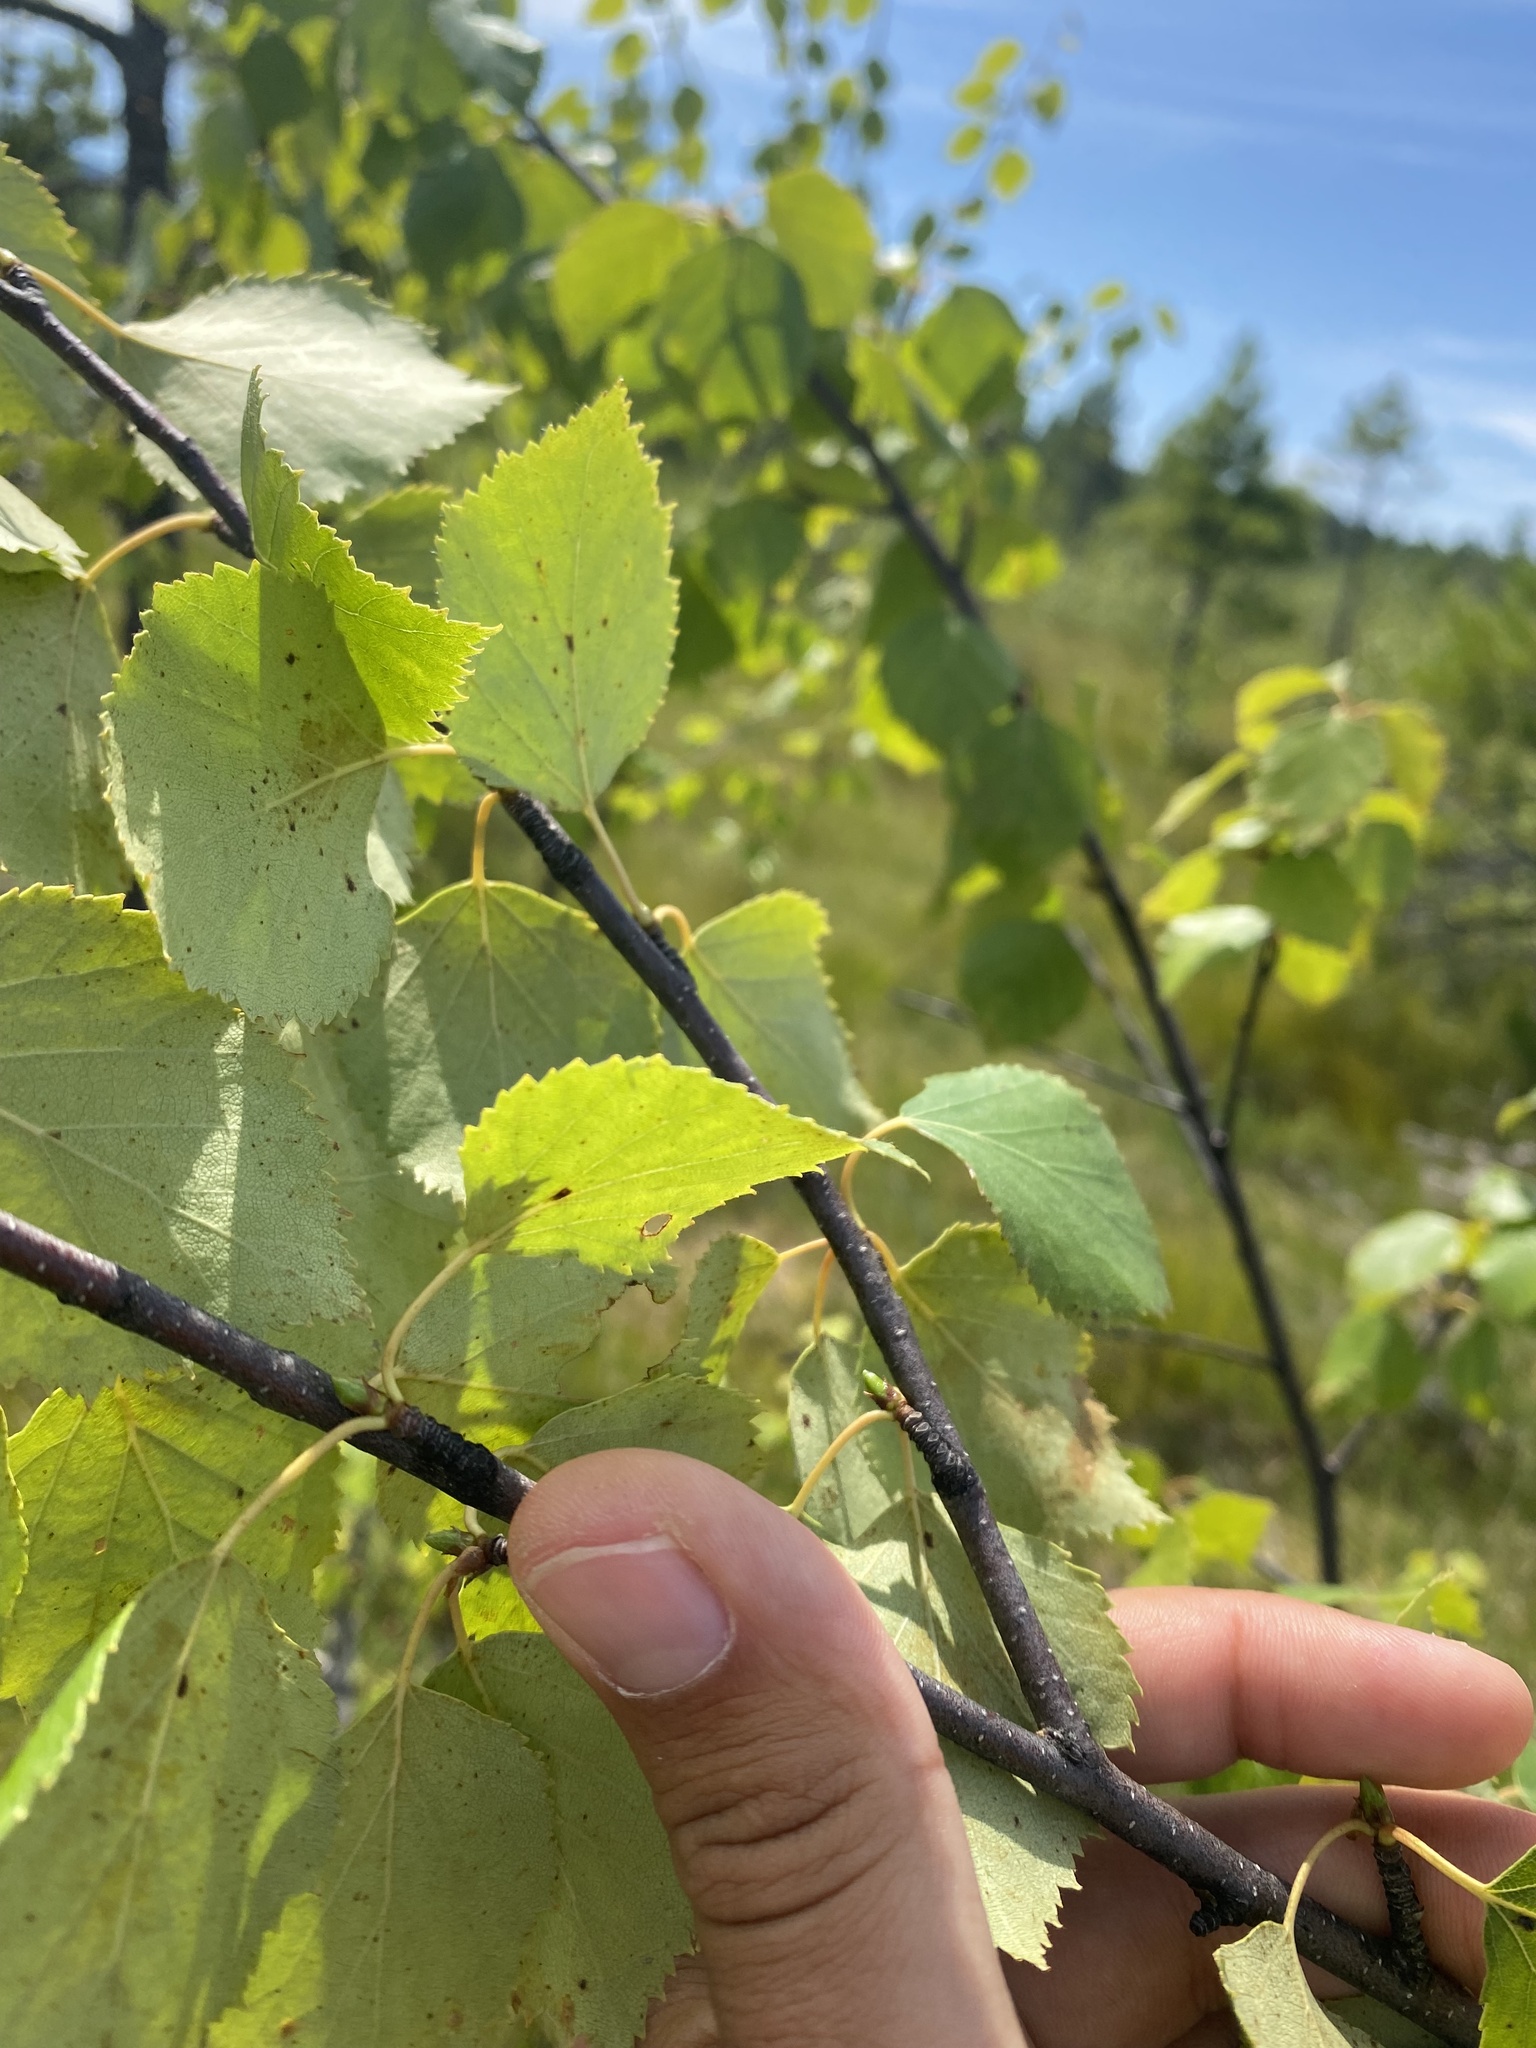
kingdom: Plantae
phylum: Tracheophyta
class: Magnoliopsida
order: Fagales
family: Betulaceae
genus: Betula
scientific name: Betula pubescens
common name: Downy birch
